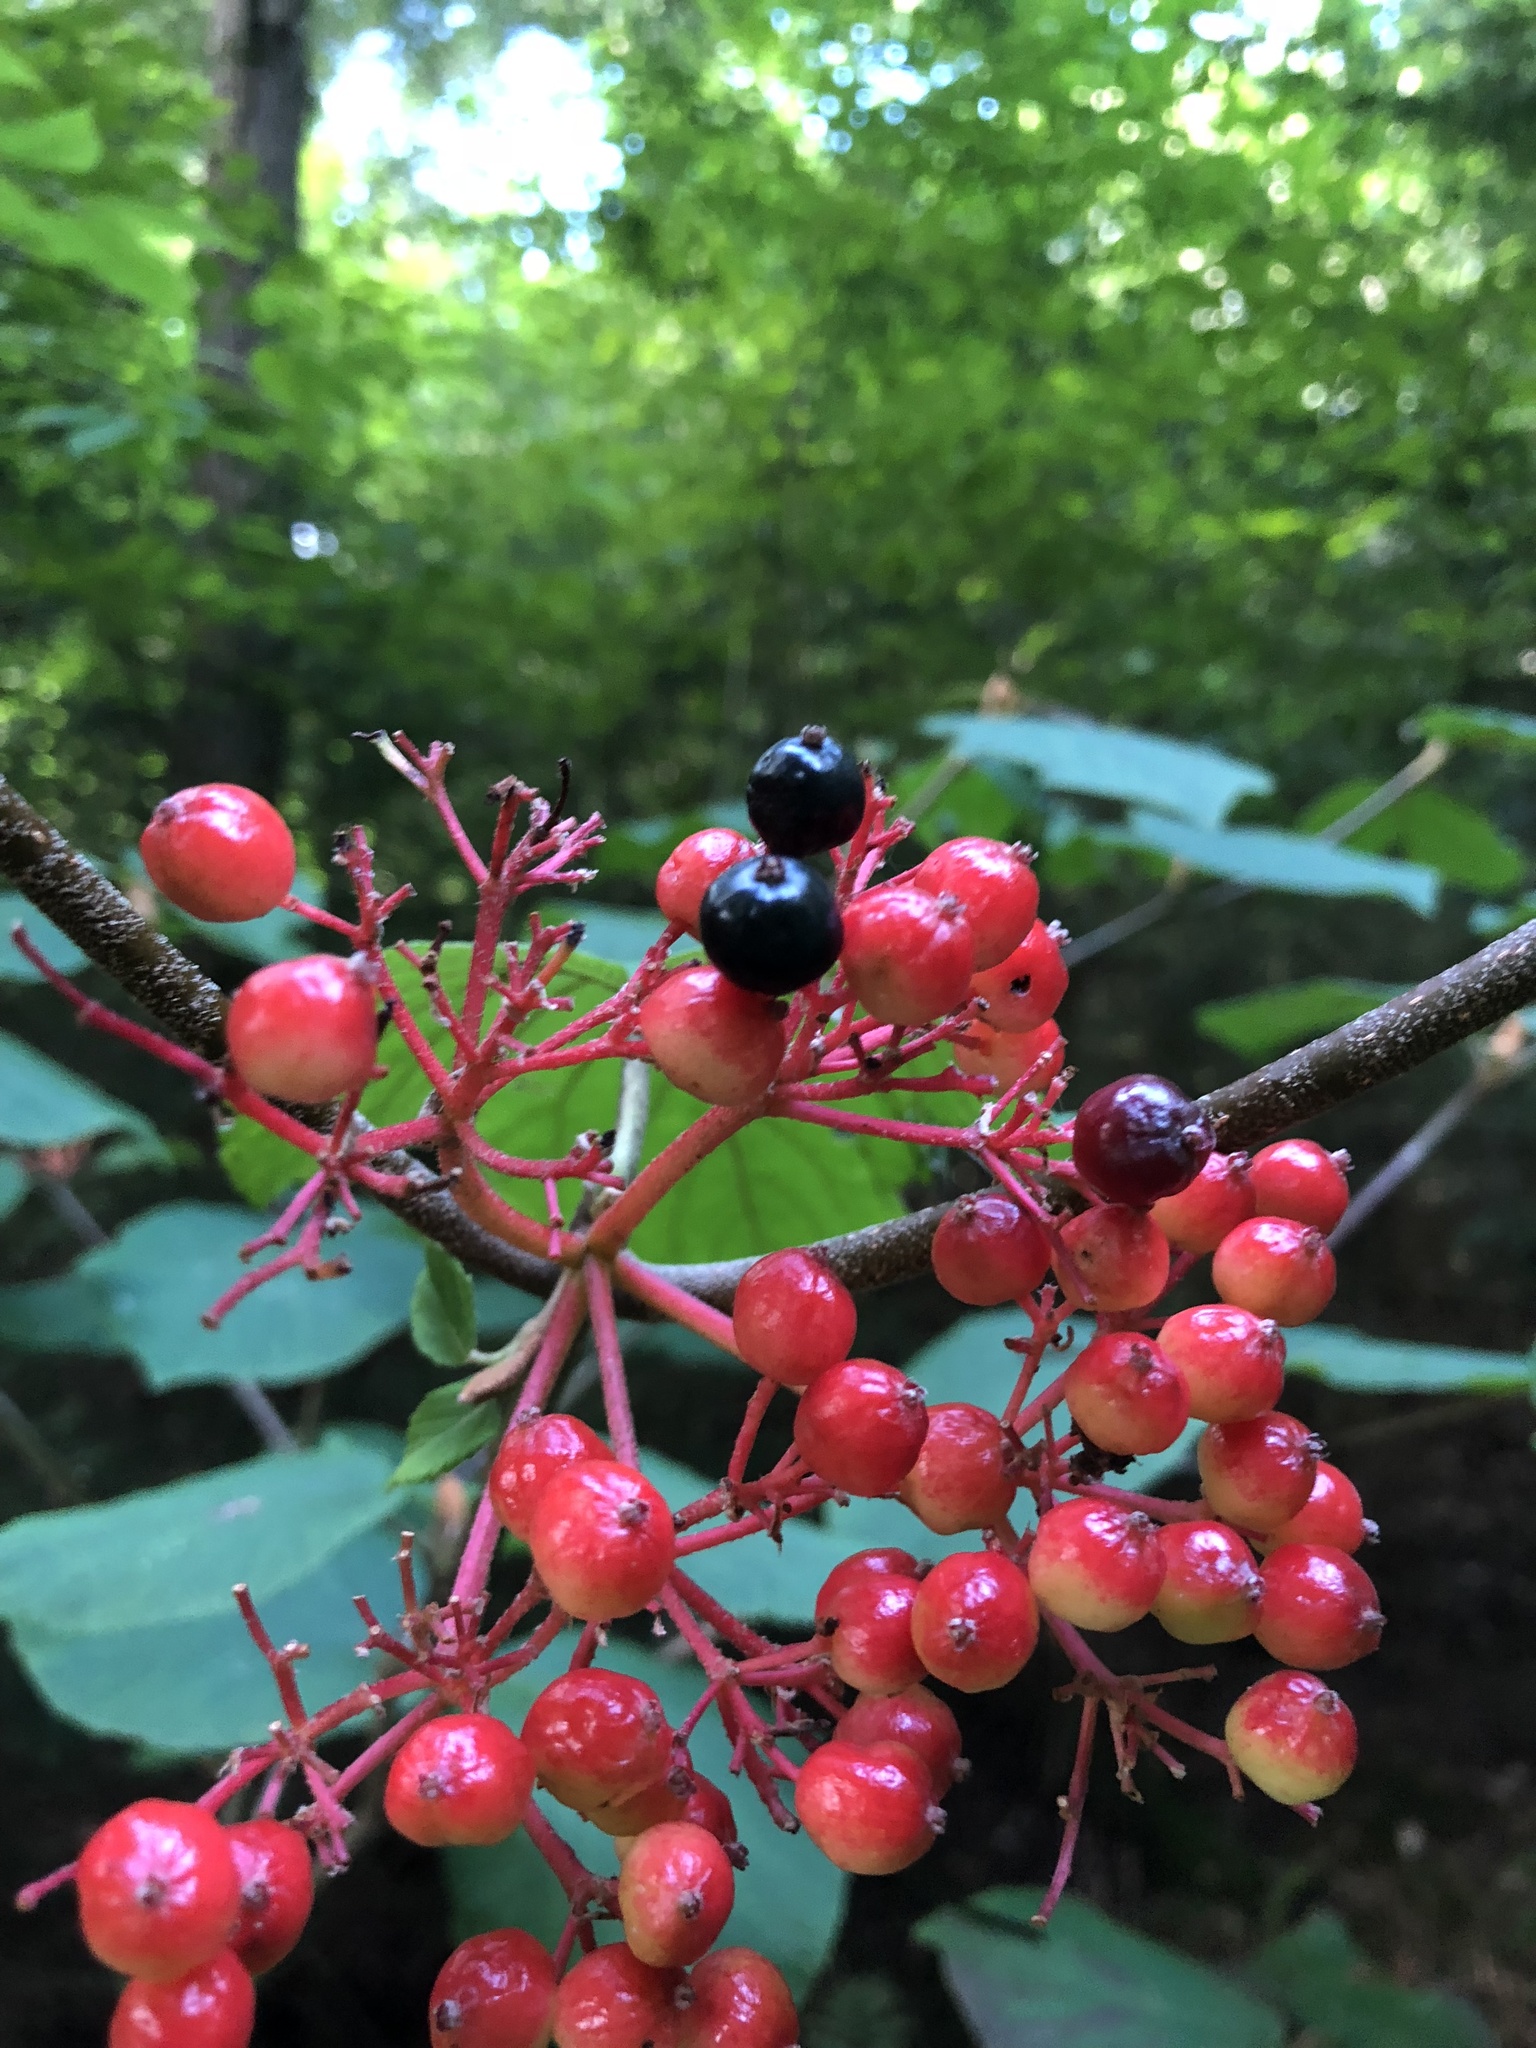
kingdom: Plantae
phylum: Tracheophyta
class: Magnoliopsida
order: Dipsacales
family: Viburnaceae
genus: Viburnum
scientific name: Viburnum lantanoides
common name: Hobblebush
